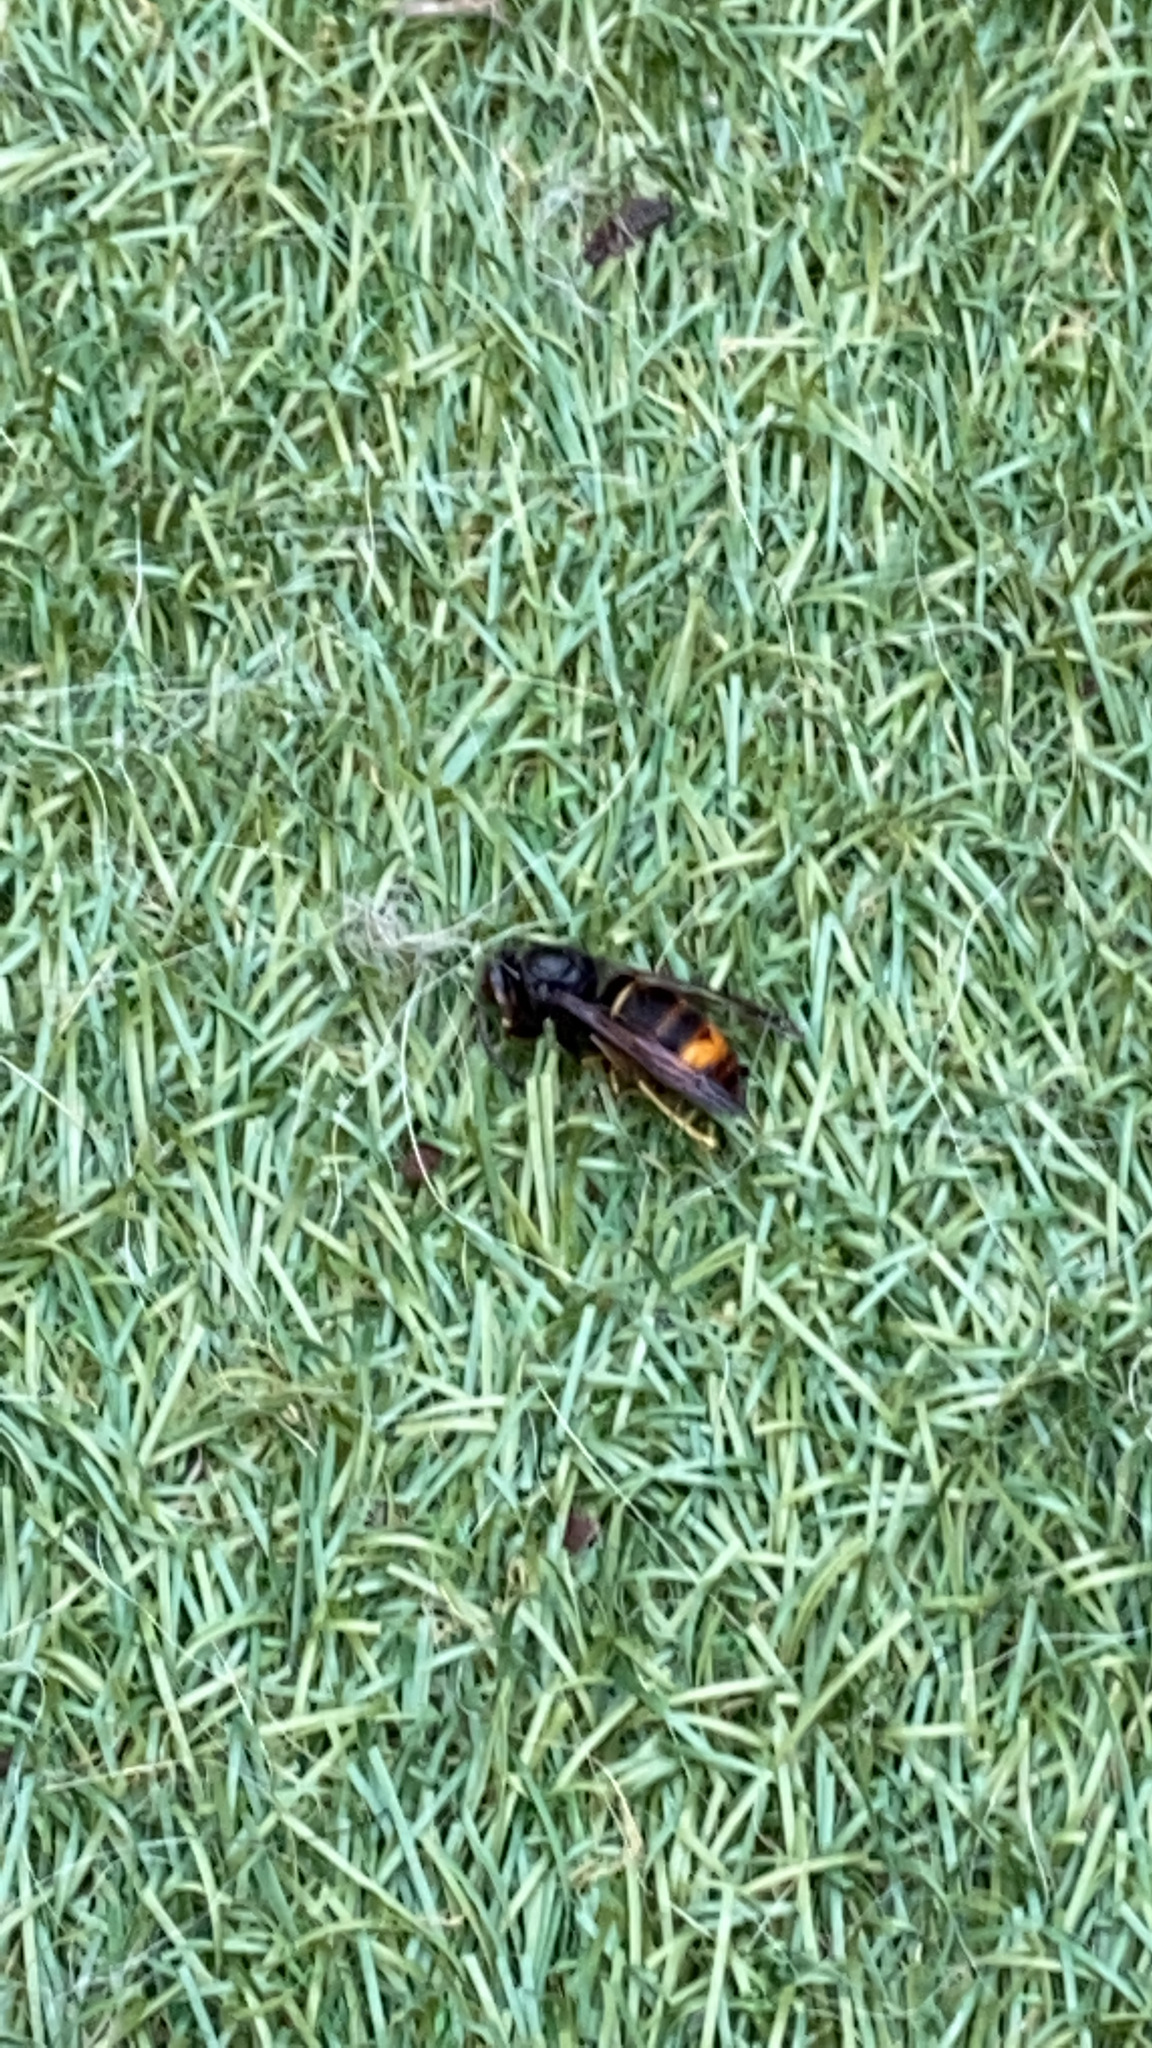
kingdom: Animalia
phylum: Arthropoda
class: Insecta
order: Hymenoptera
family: Vespidae
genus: Vespa
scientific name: Vespa velutina
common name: Asian hornet
